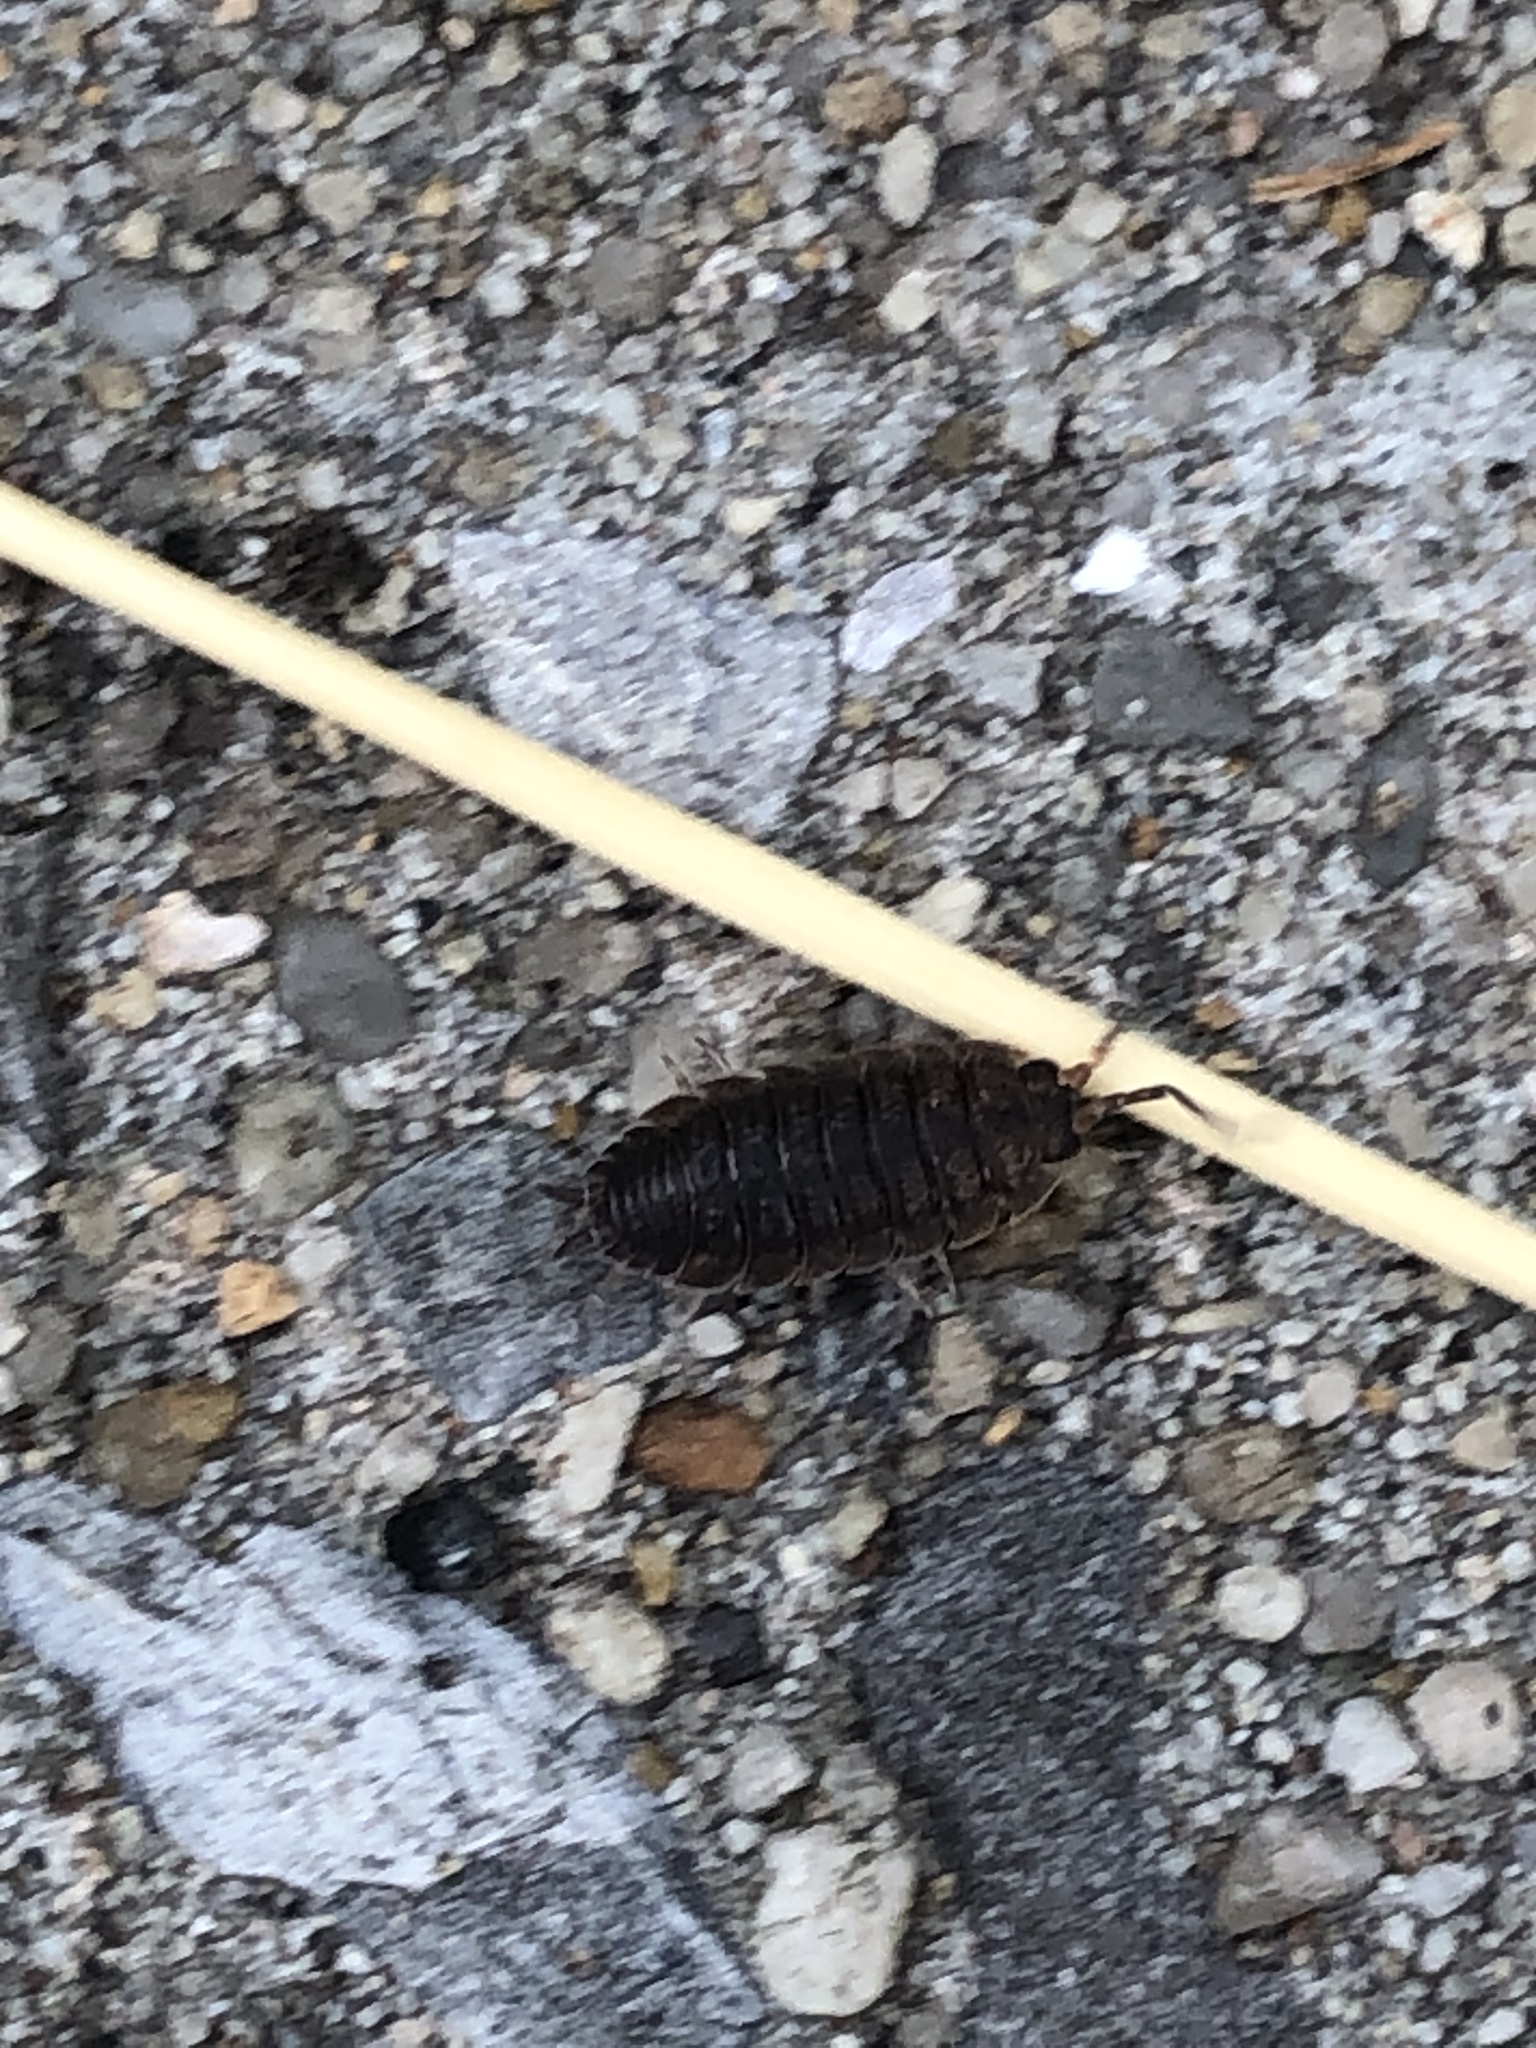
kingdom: Animalia
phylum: Arthropoda
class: Malacostraca
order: Isopoda
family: Porcellionidae
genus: Porcellio
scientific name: Porcellio scaber
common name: Common rough woodlouse
